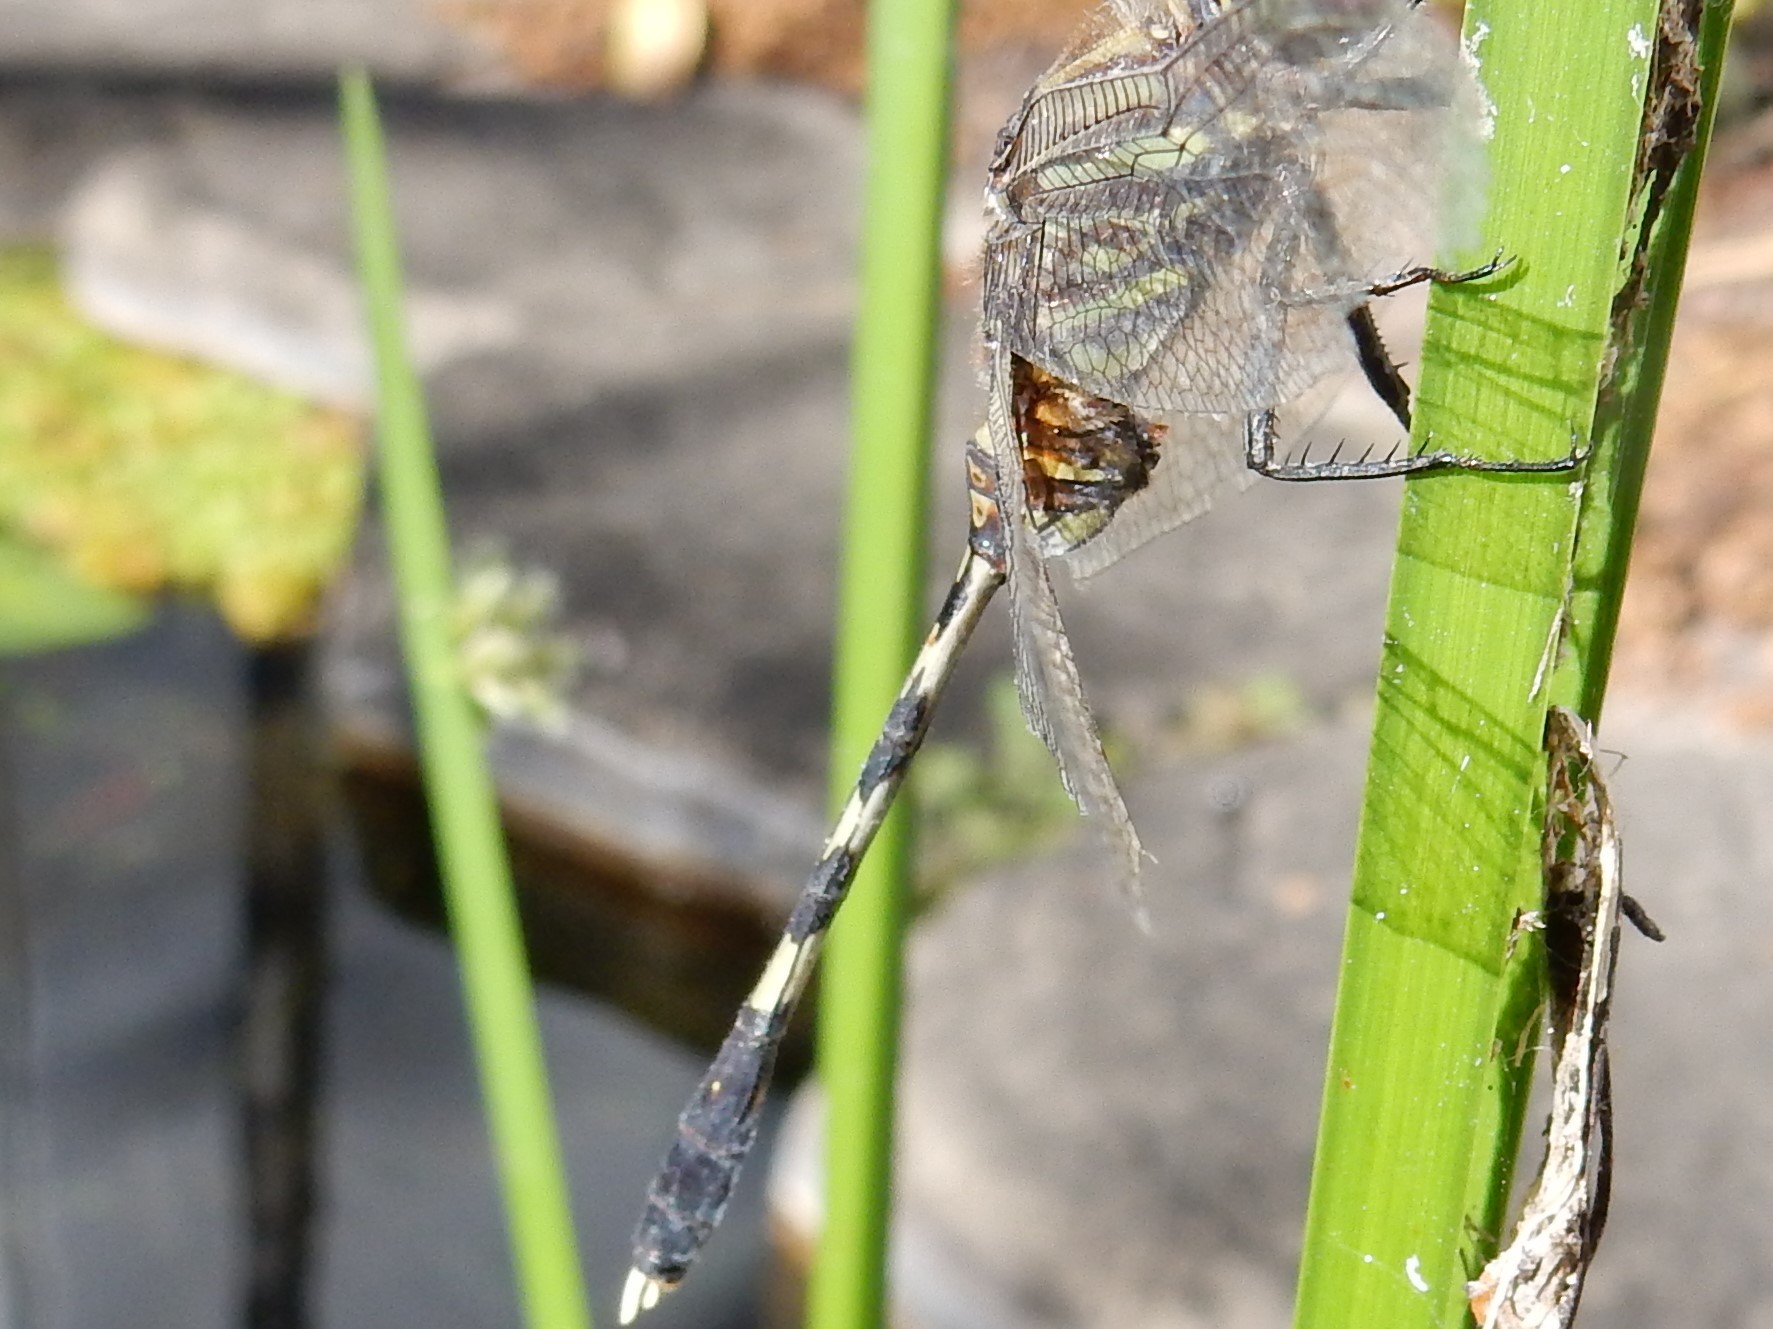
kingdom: Animalia
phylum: Arthropoda
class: Insecta
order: Odonata
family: Libellulidae
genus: Orthetrum
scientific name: Orthetrum serapia
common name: Green skimmer
